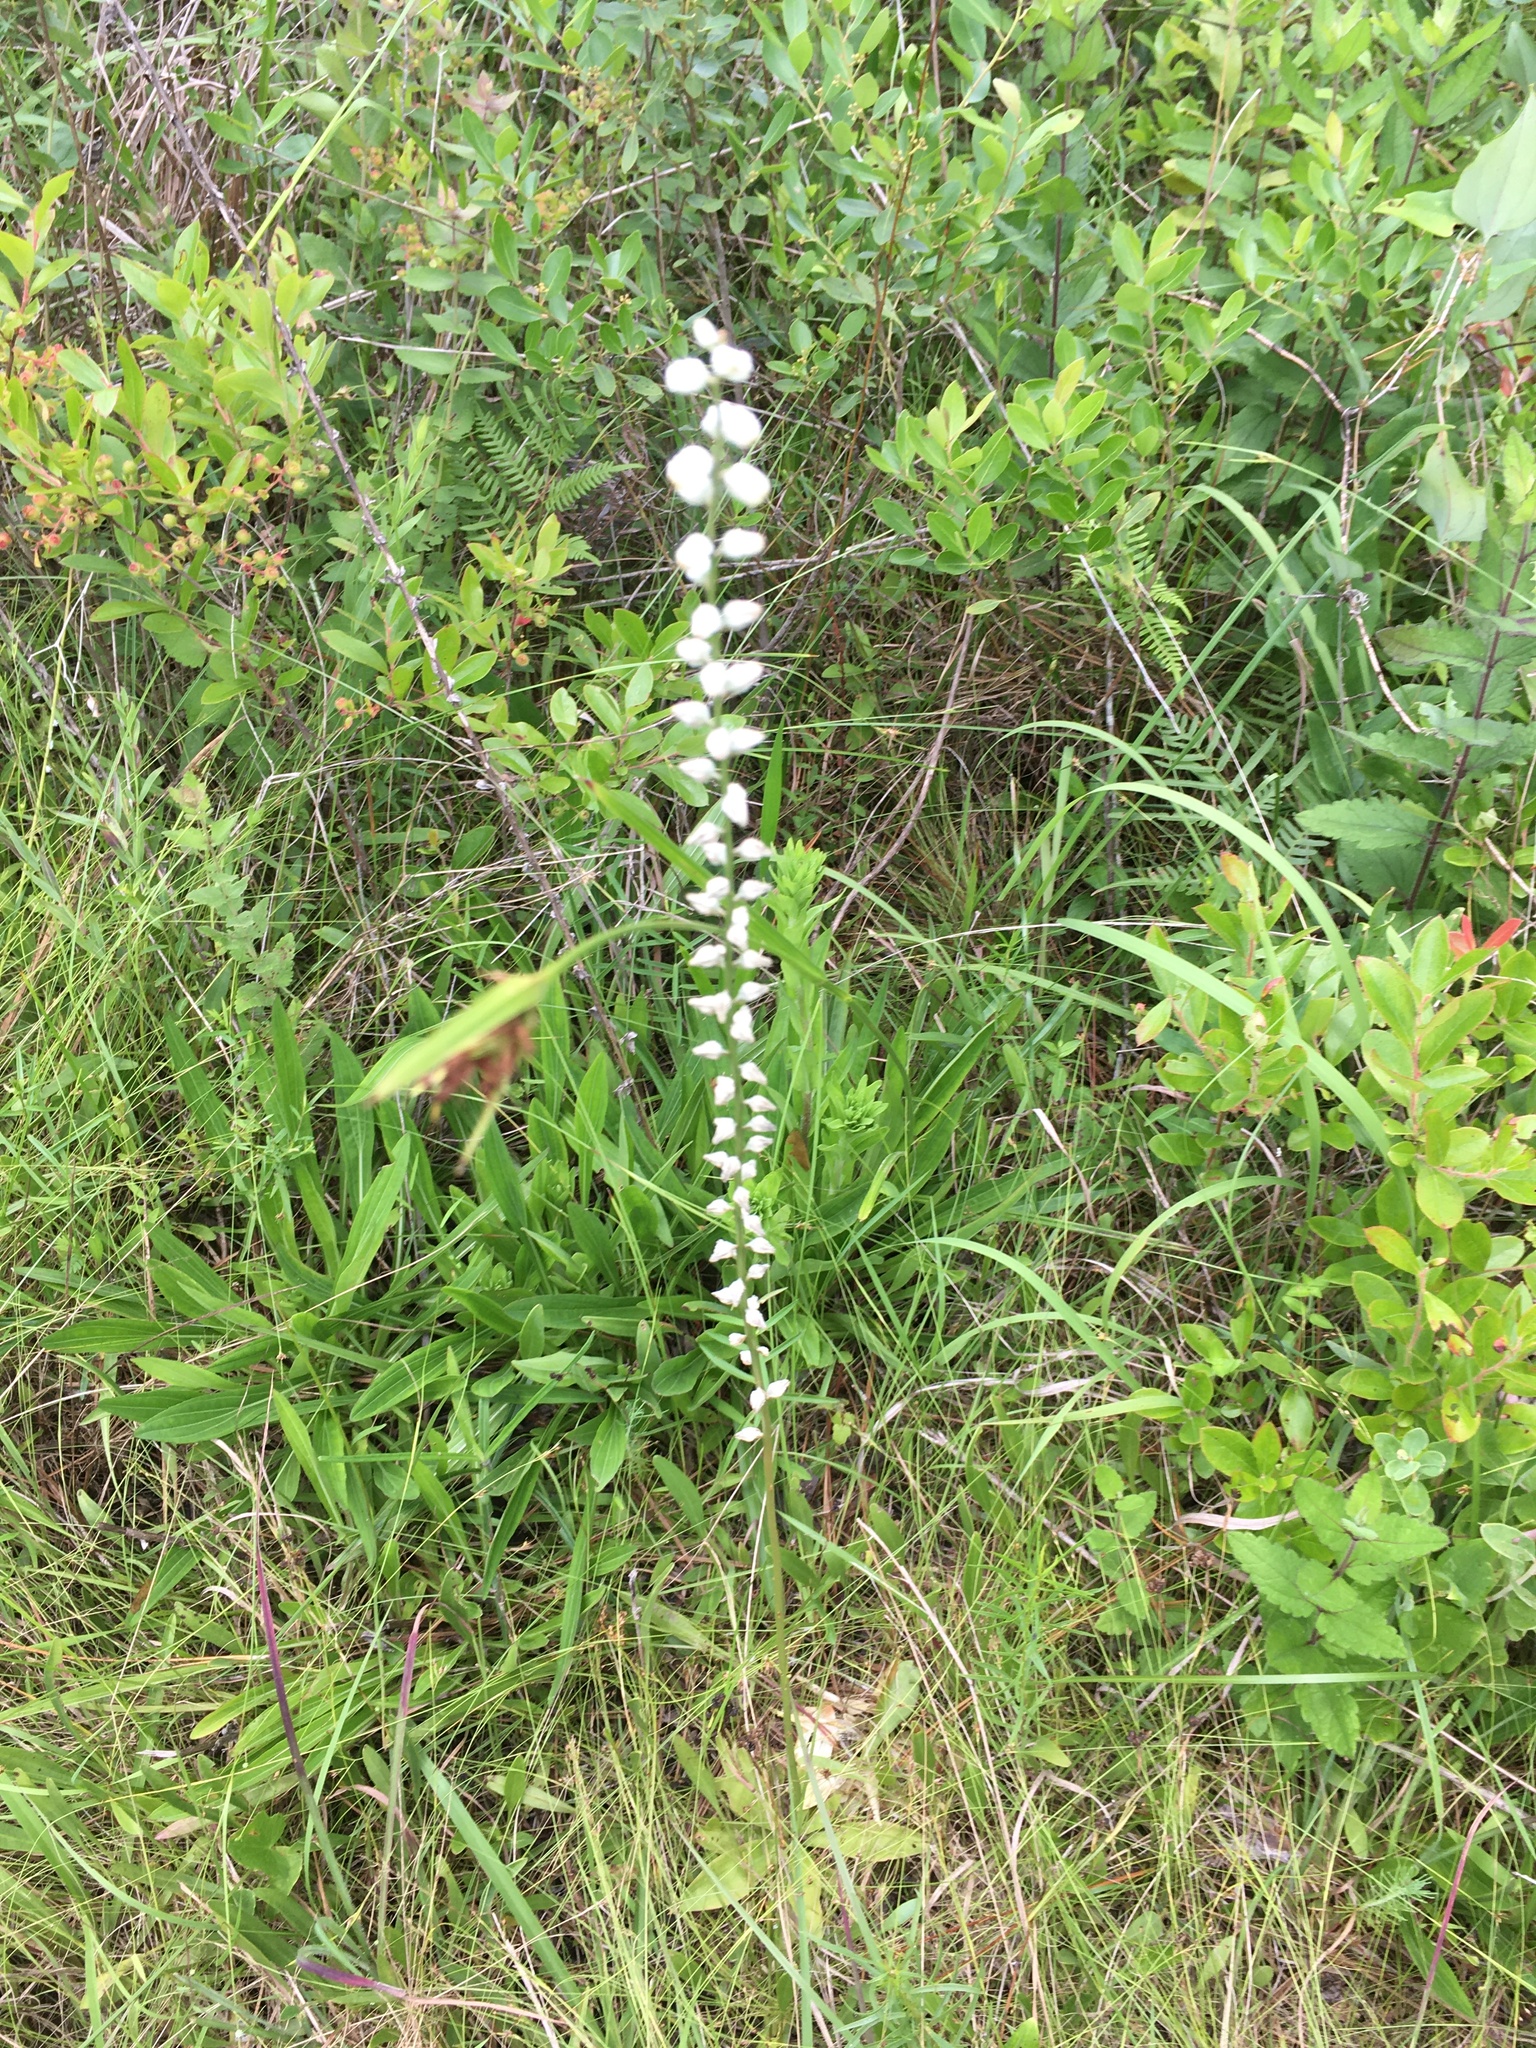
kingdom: Plantae
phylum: Tracheophyta
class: Liliopsida
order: Dioscoreales
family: Nartheciaceae
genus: Aletris
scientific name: Aletris obovata
